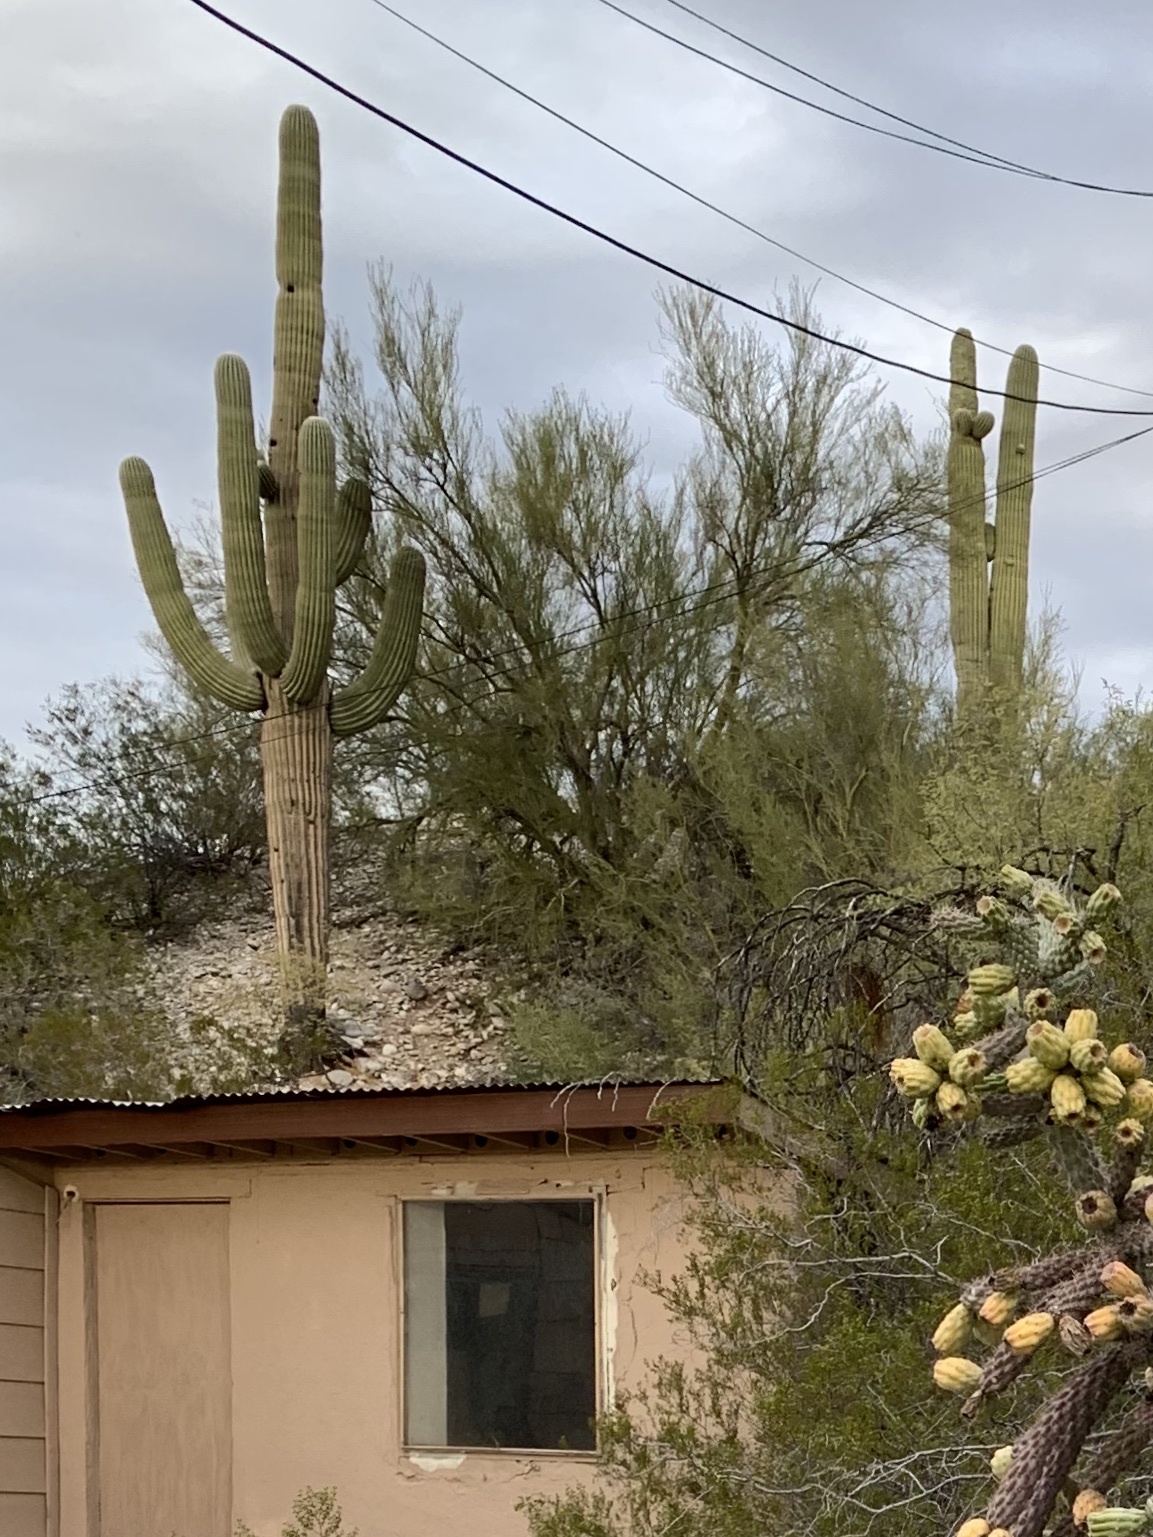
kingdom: Plantae
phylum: Tracheophyta
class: Magnoliopsida
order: Caryophyllales
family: Cactaceae
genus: Carnegiea
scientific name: Carnegiea gigantea
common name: Saguaro
